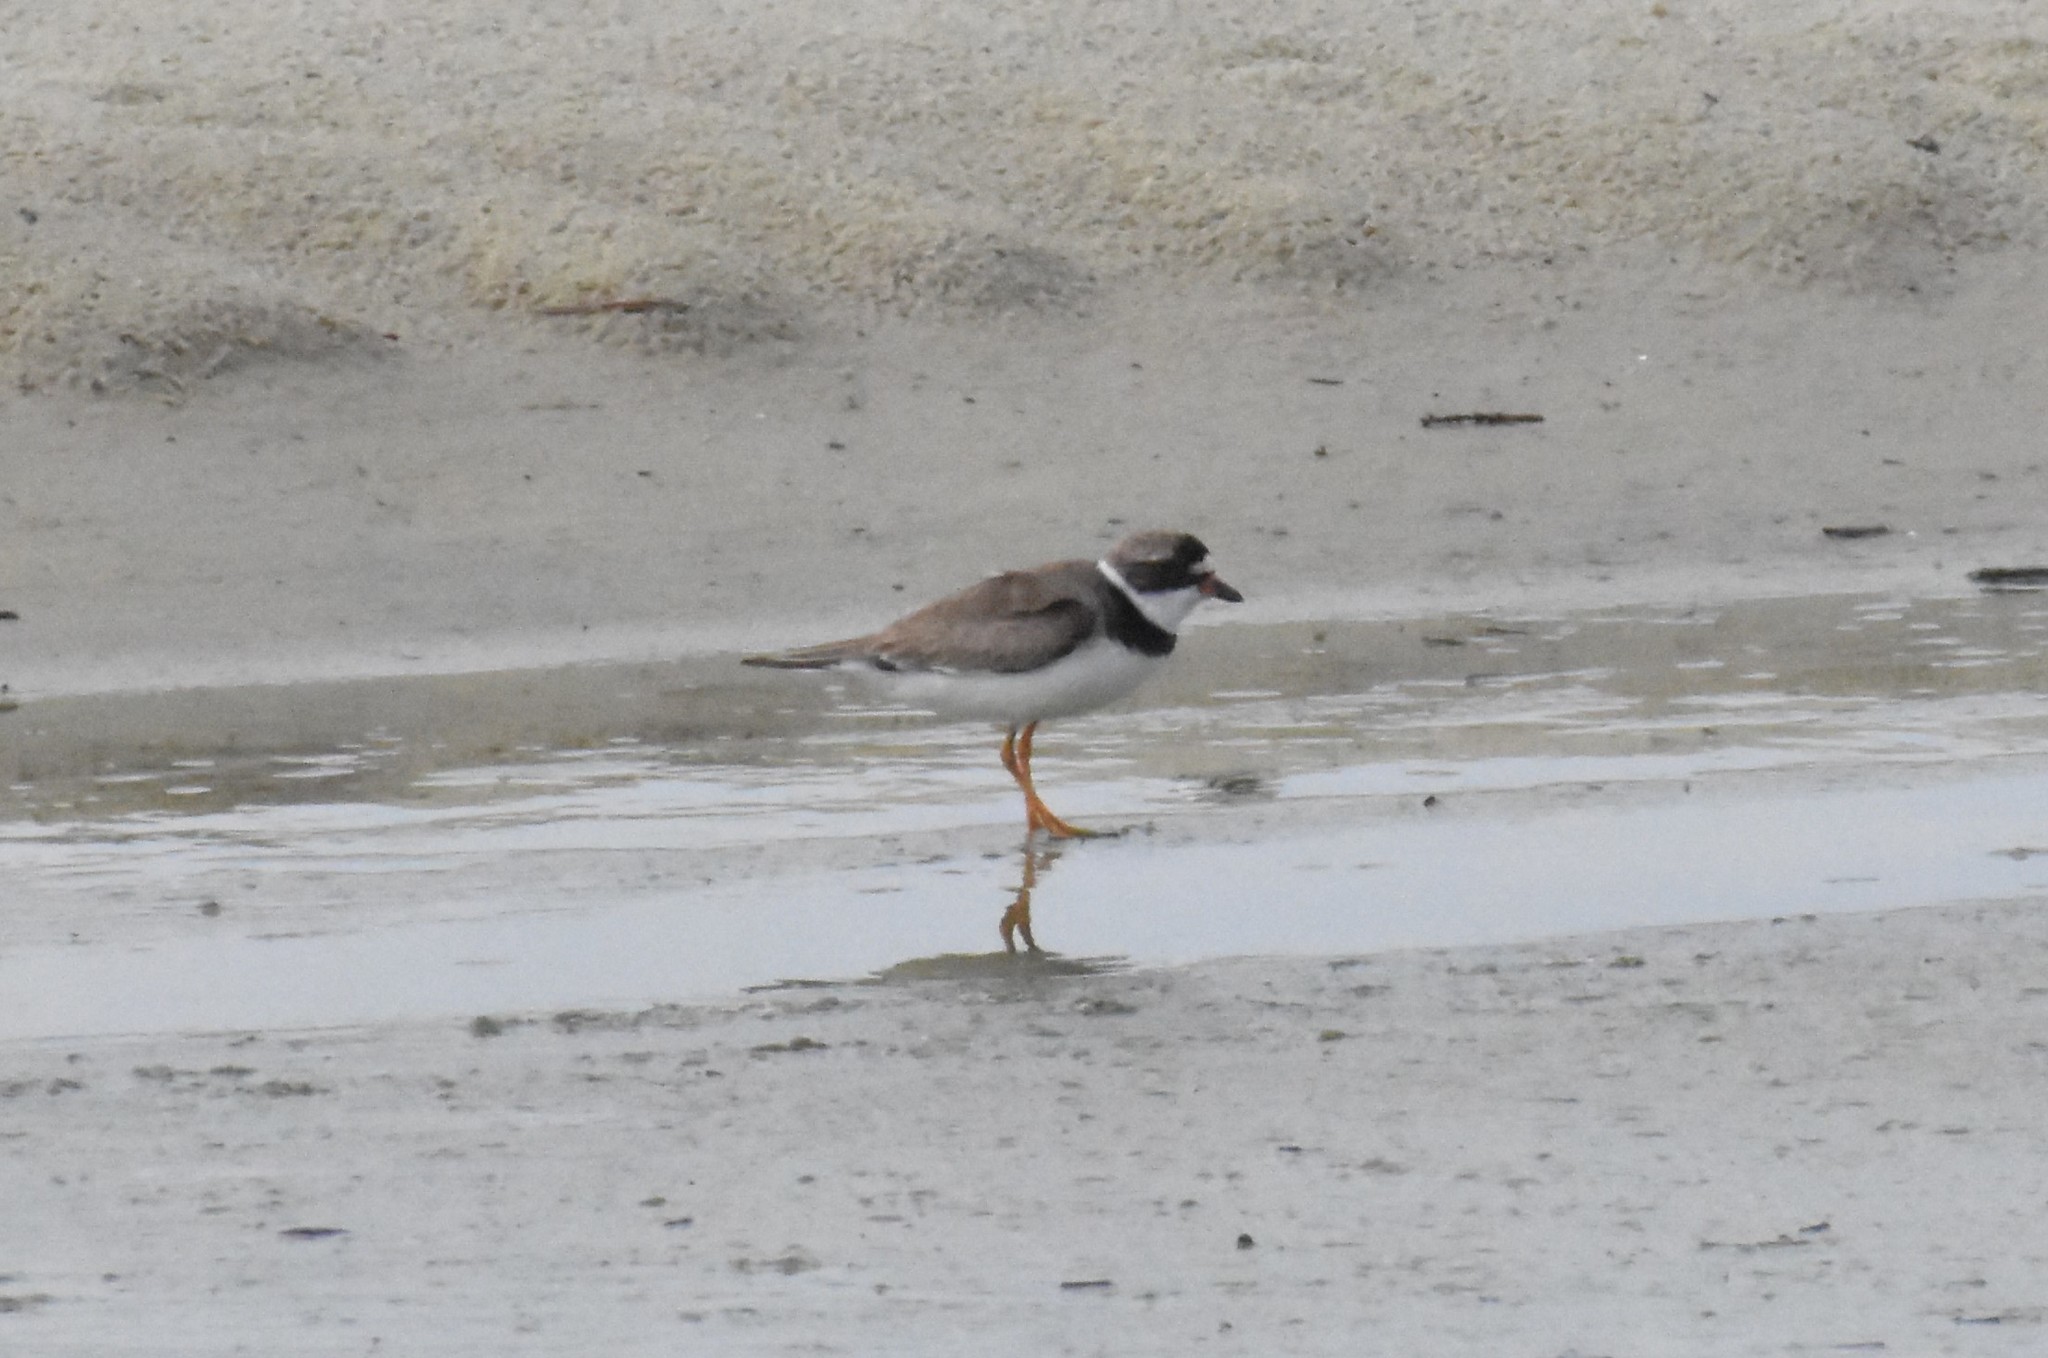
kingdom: Animalia
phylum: Chordata
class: Aves
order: Charadriiformes
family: Charadriidae
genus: Charadrius
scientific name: Charadrius semipalmatus
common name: Semipalmated plover
